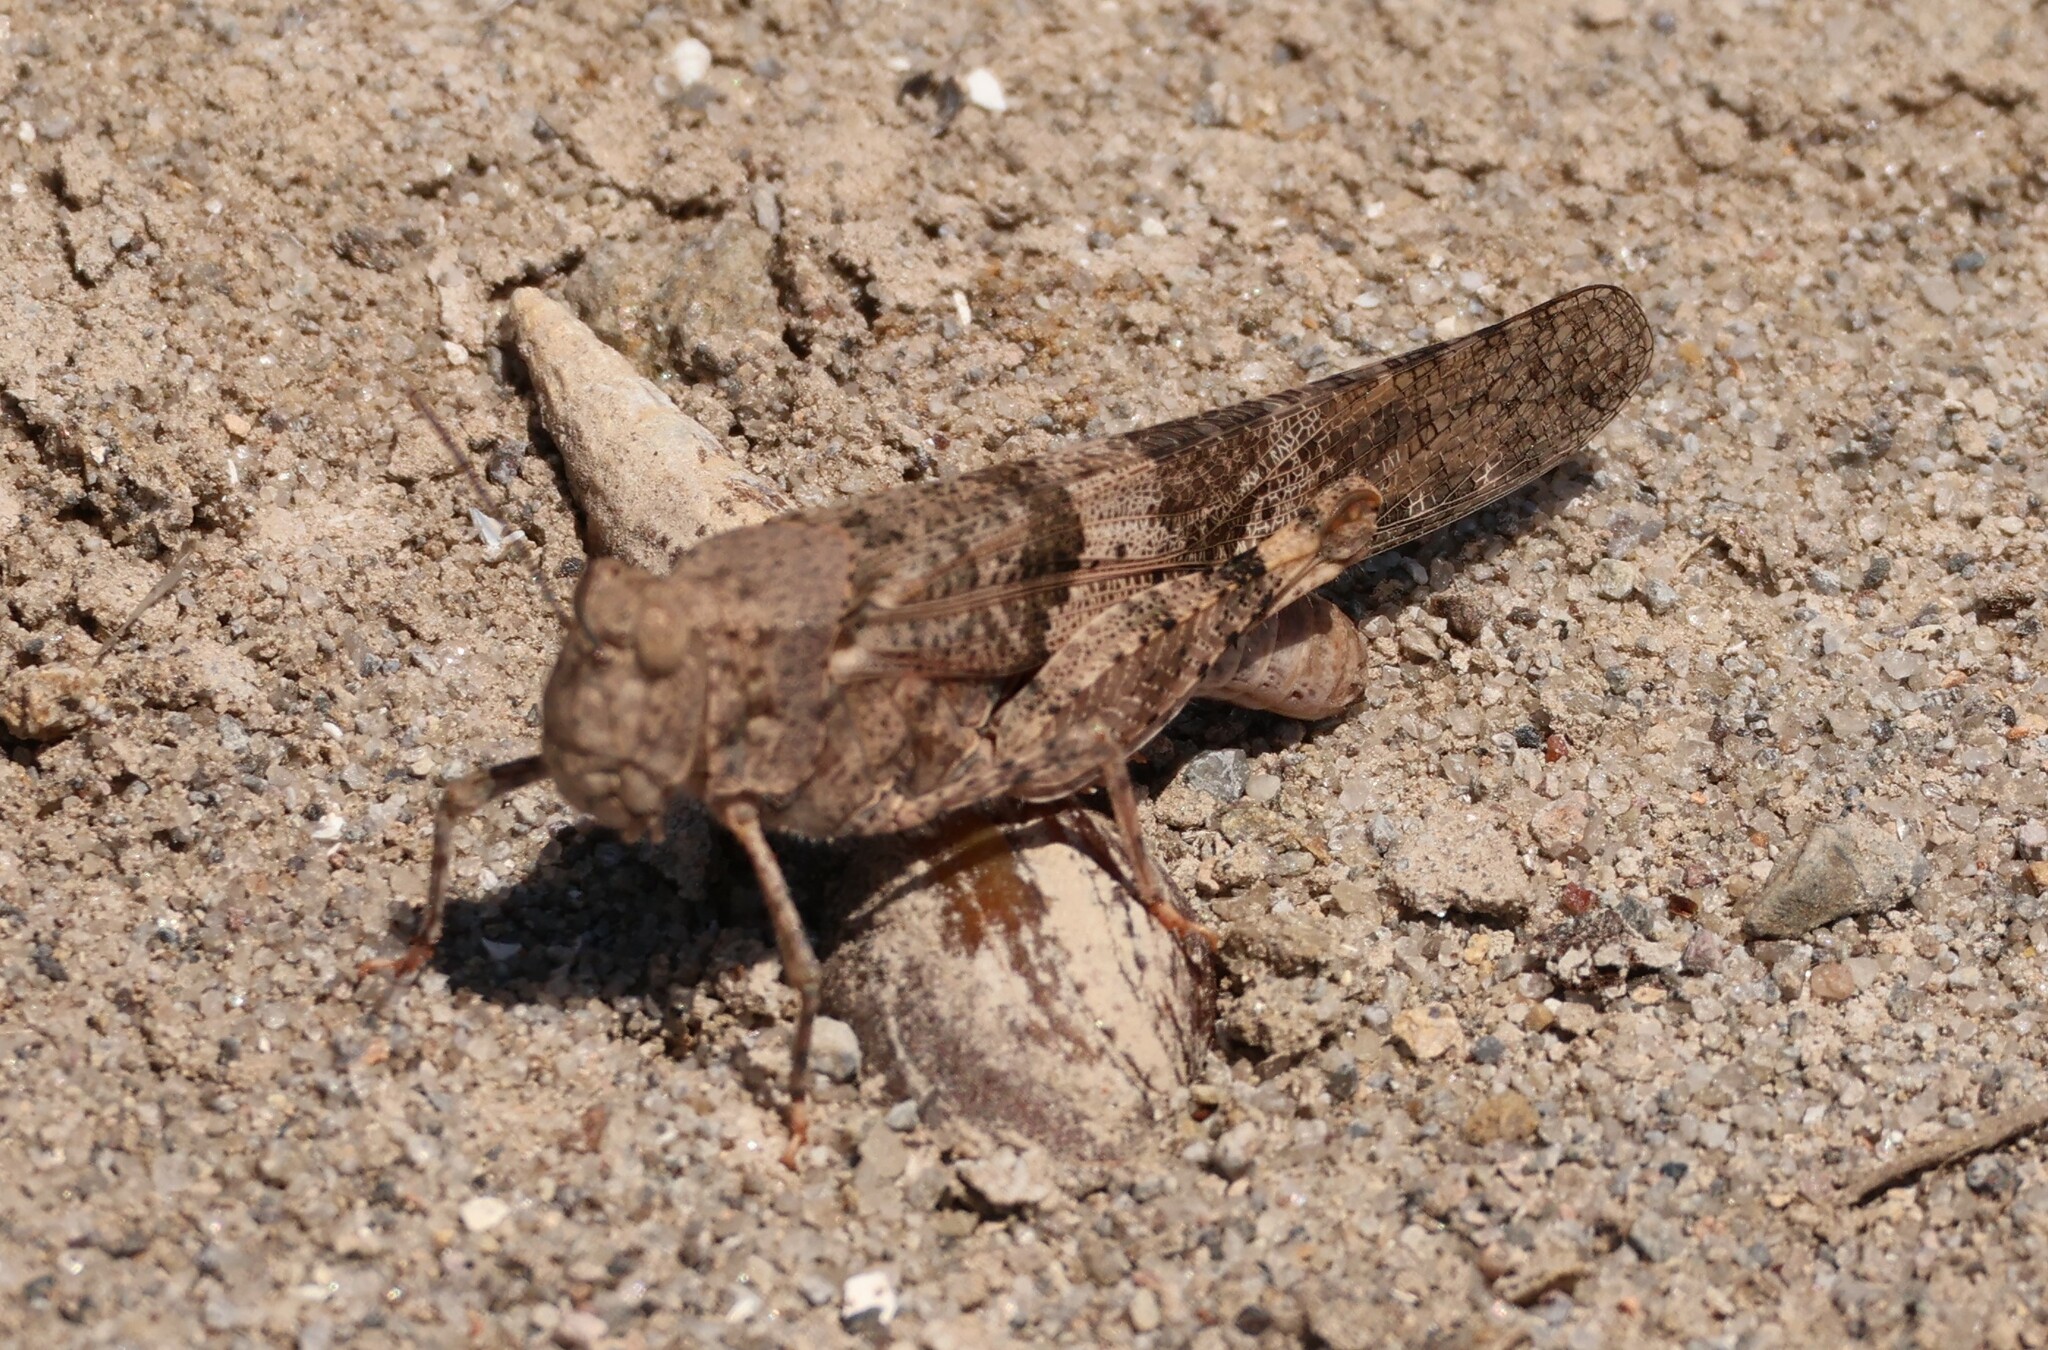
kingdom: Animalia
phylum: Arthropoda
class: Insecta
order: Orthoptera
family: Acrididae
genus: Trimerotropis
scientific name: Trimerotropis pallidipennis
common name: Pallid-winged grasshopper
